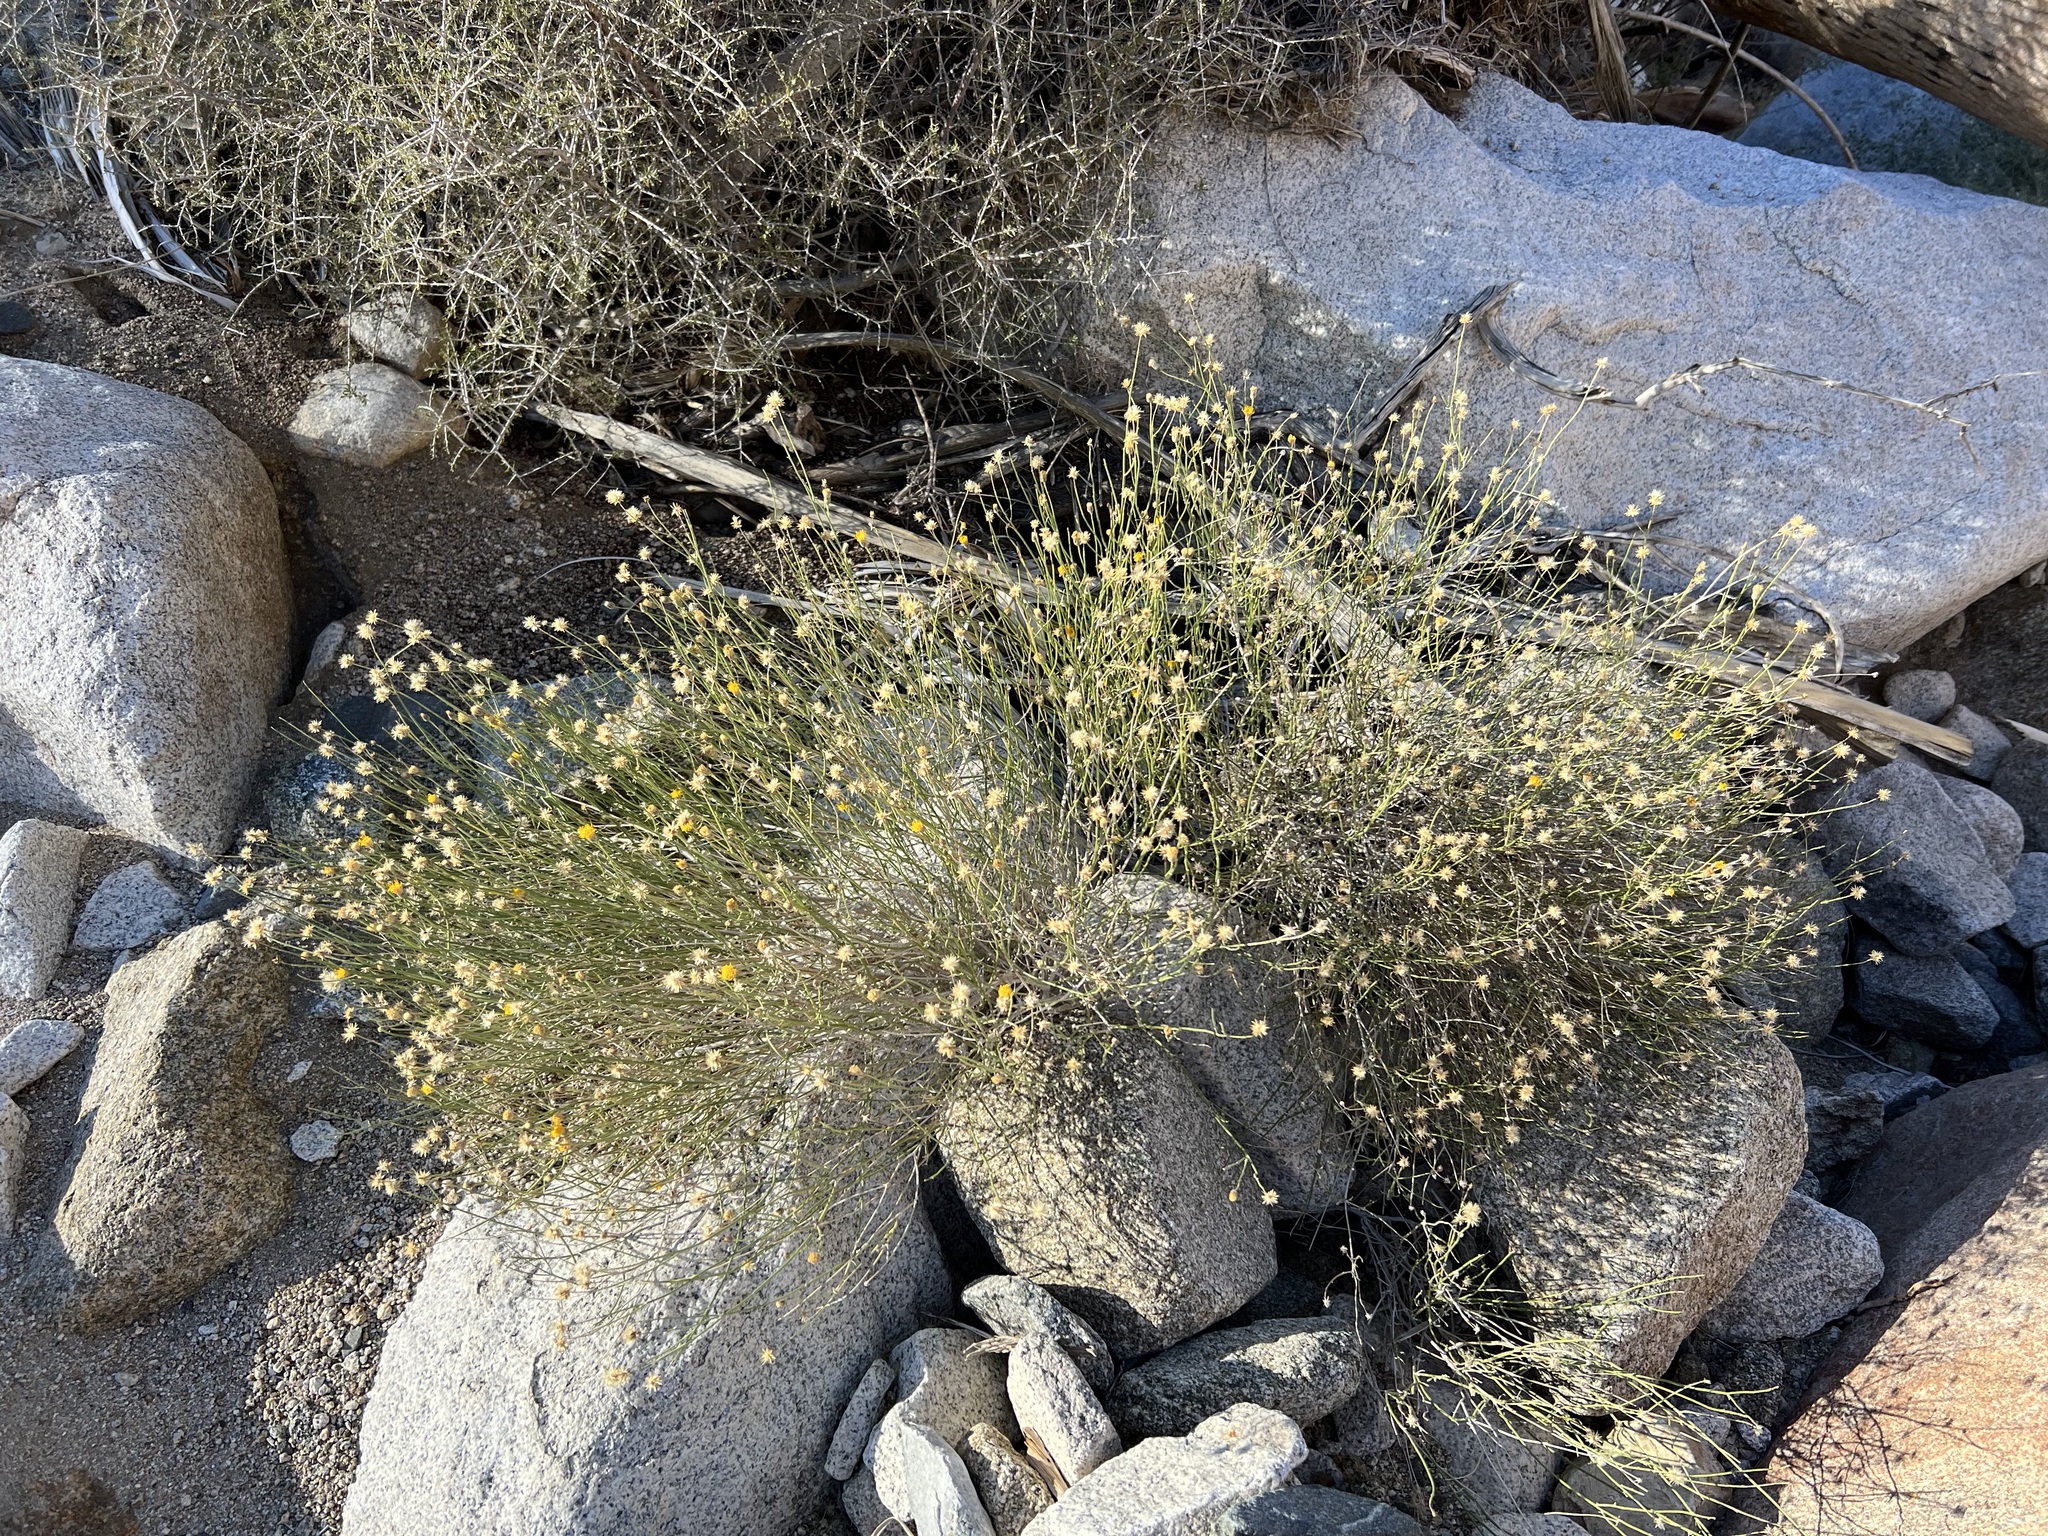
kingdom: Plantae
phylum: Tracheophyta
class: Magnoliopsida
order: Asterales
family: Asteraceae
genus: Bebbia
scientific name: Bebbia juncea
